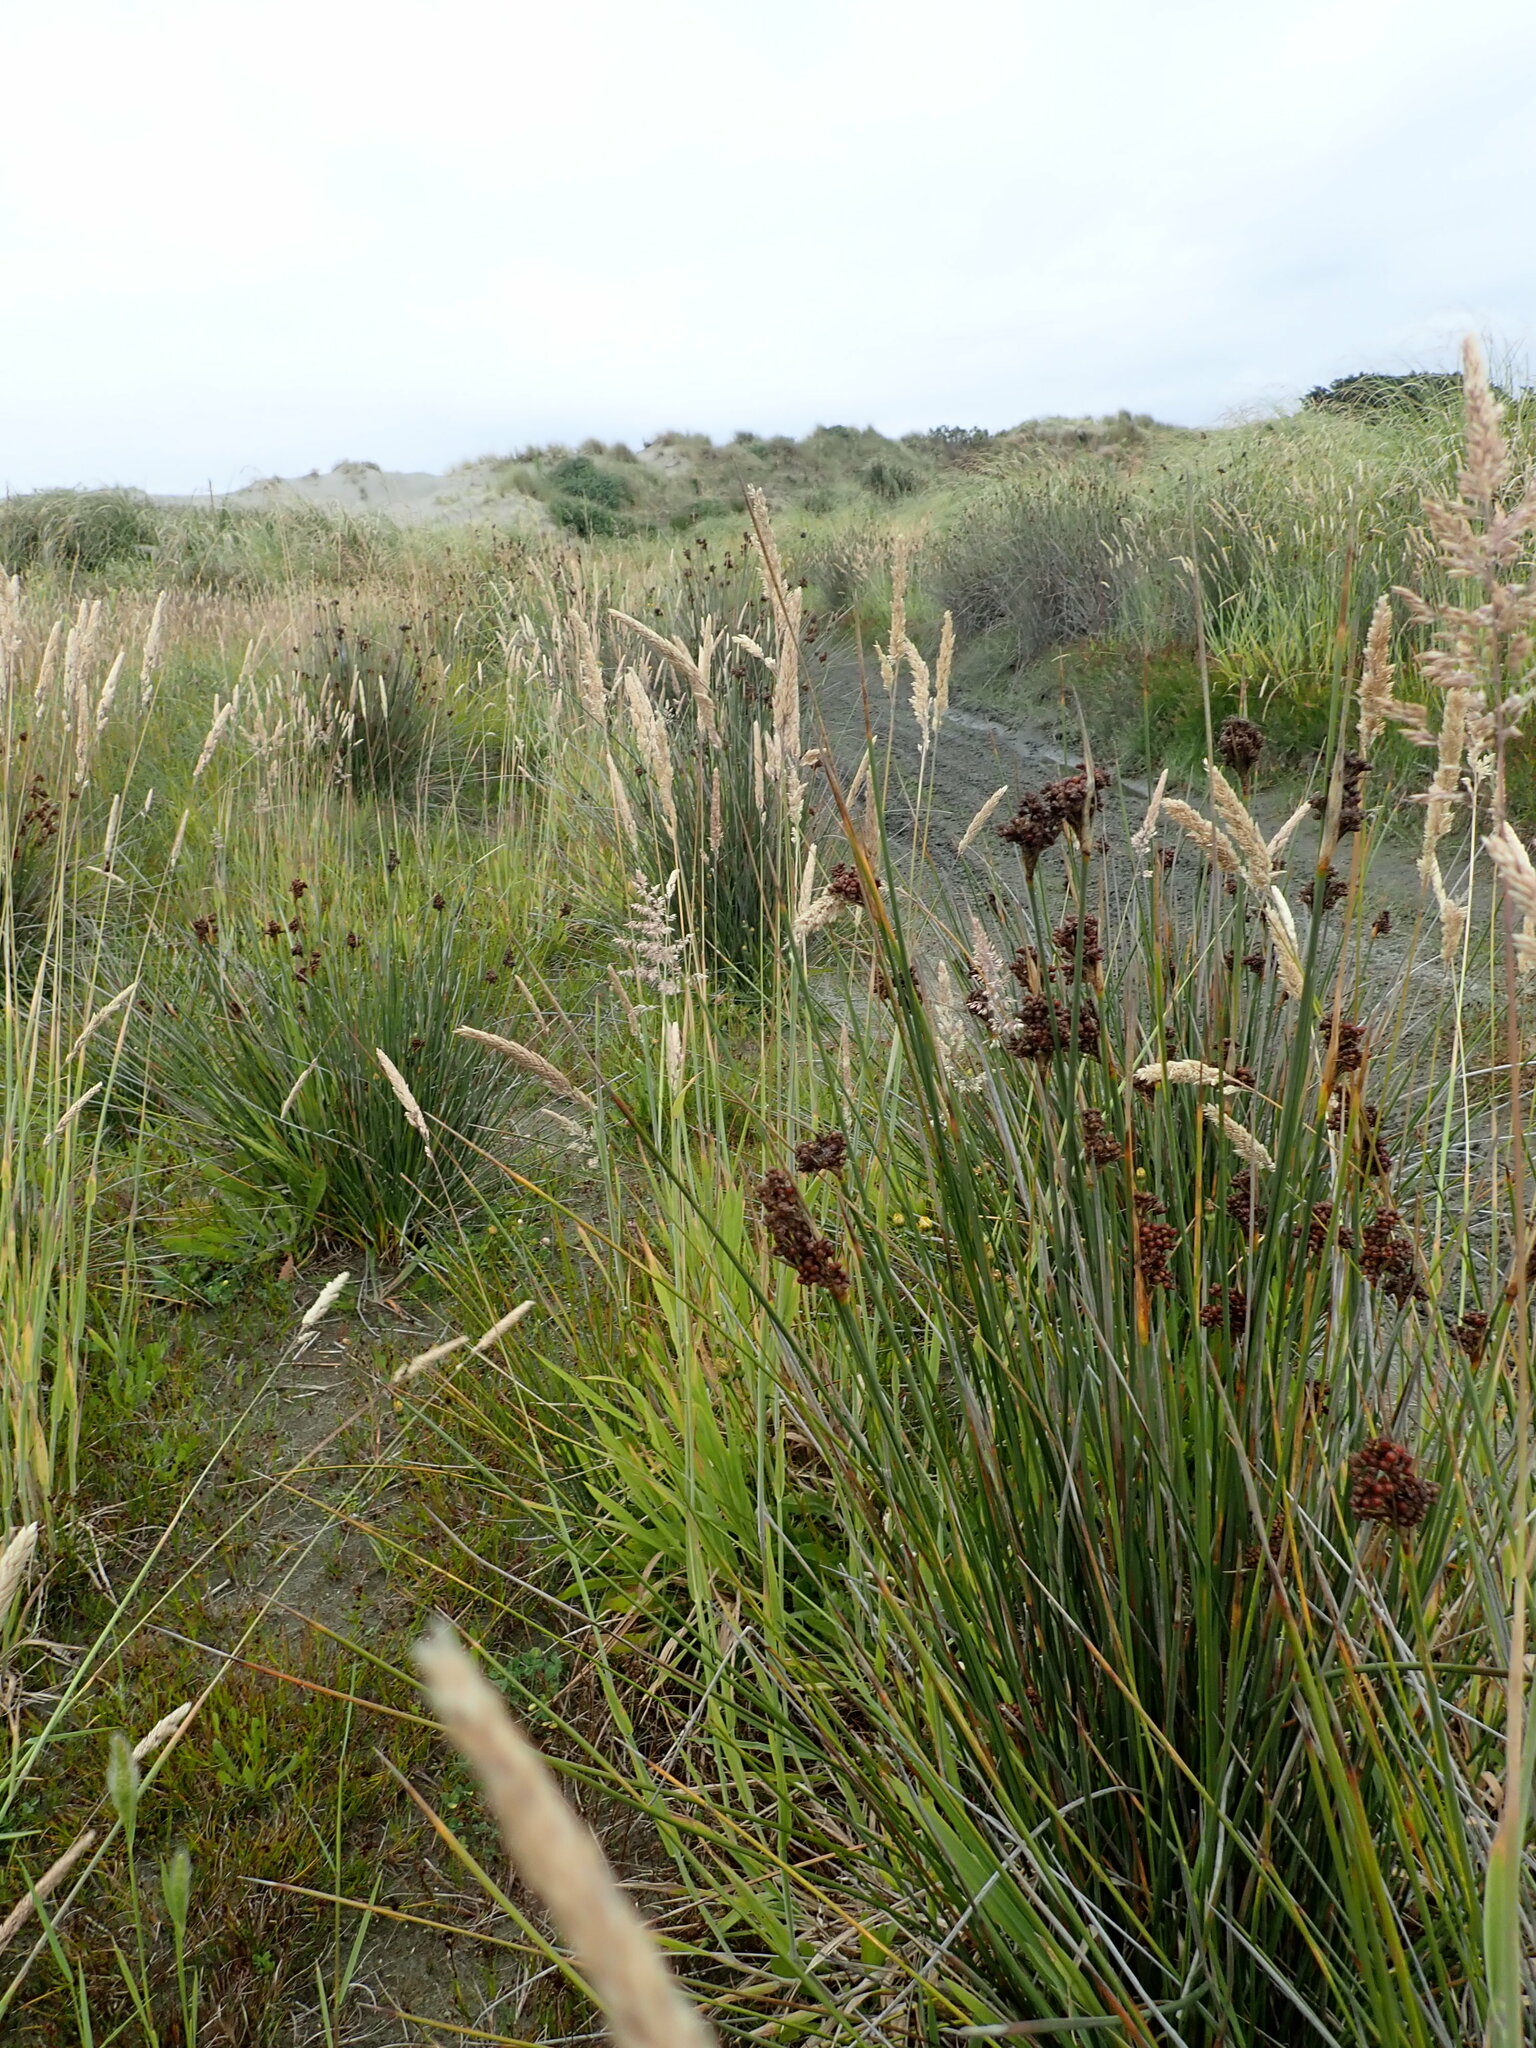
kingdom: Plantae
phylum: Tracheophyta
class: Liliopsida
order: Poales
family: Juncaceae
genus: Juncus
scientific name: Juncus acutus
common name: Sharp rush
